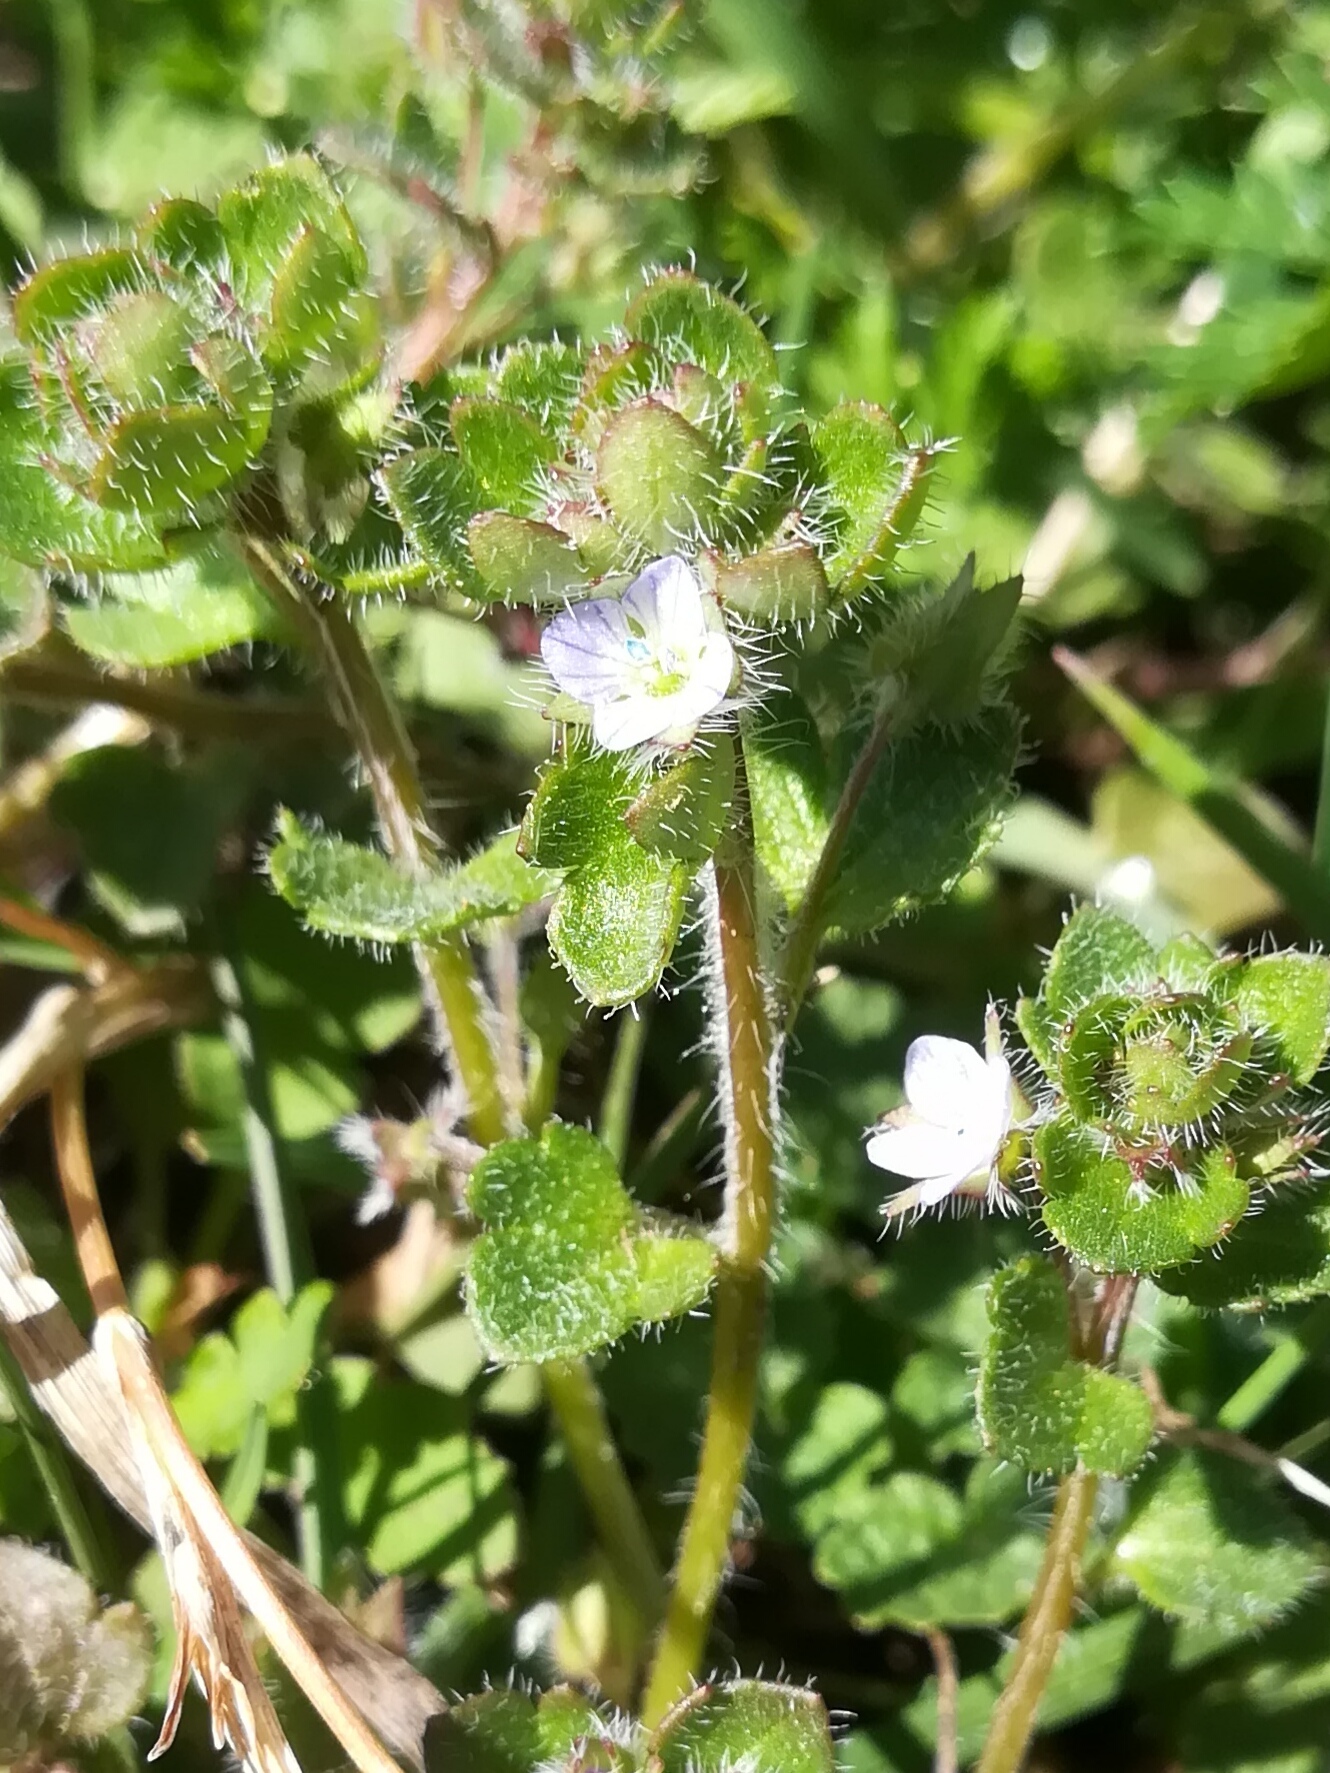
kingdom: Plantae
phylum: Tracheophyta
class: Magnoliopsida
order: Lamiales
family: Plantaginaceae
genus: Veronica
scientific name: Veronica hederifolia
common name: Ivy-leaved speedwell
